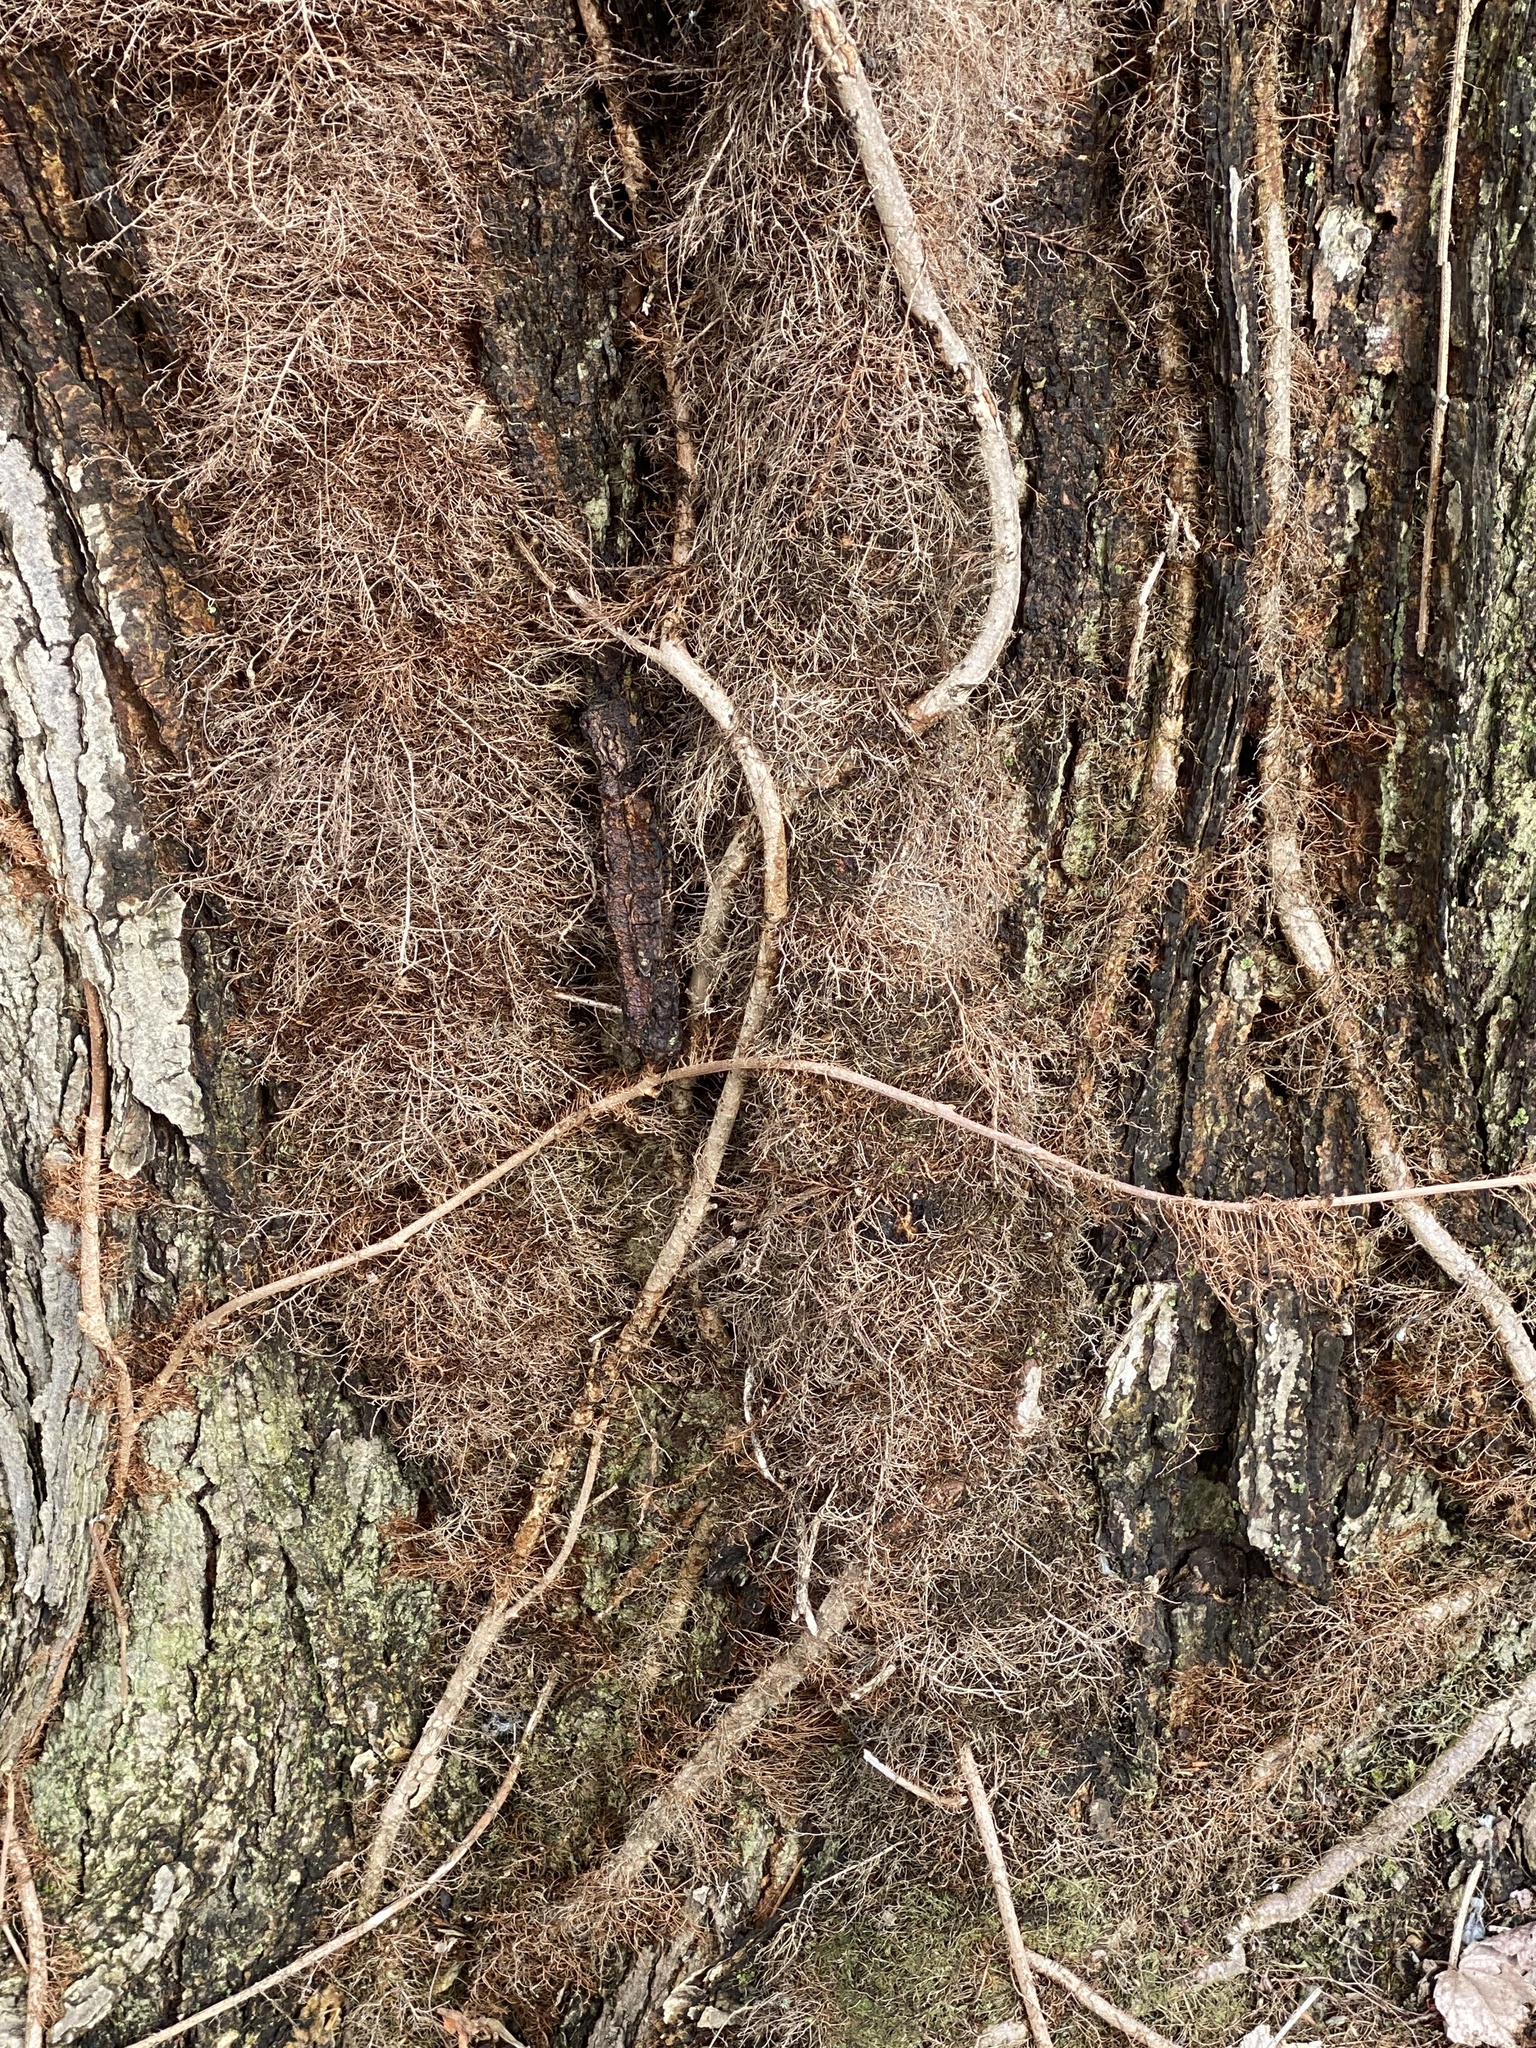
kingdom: Plantae
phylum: Tracheophyta
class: Magnoliopsida
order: Sapindales
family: Anacardiaceae
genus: Toxicodendron
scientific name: Toxicodendron radicans
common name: Poison ivy
